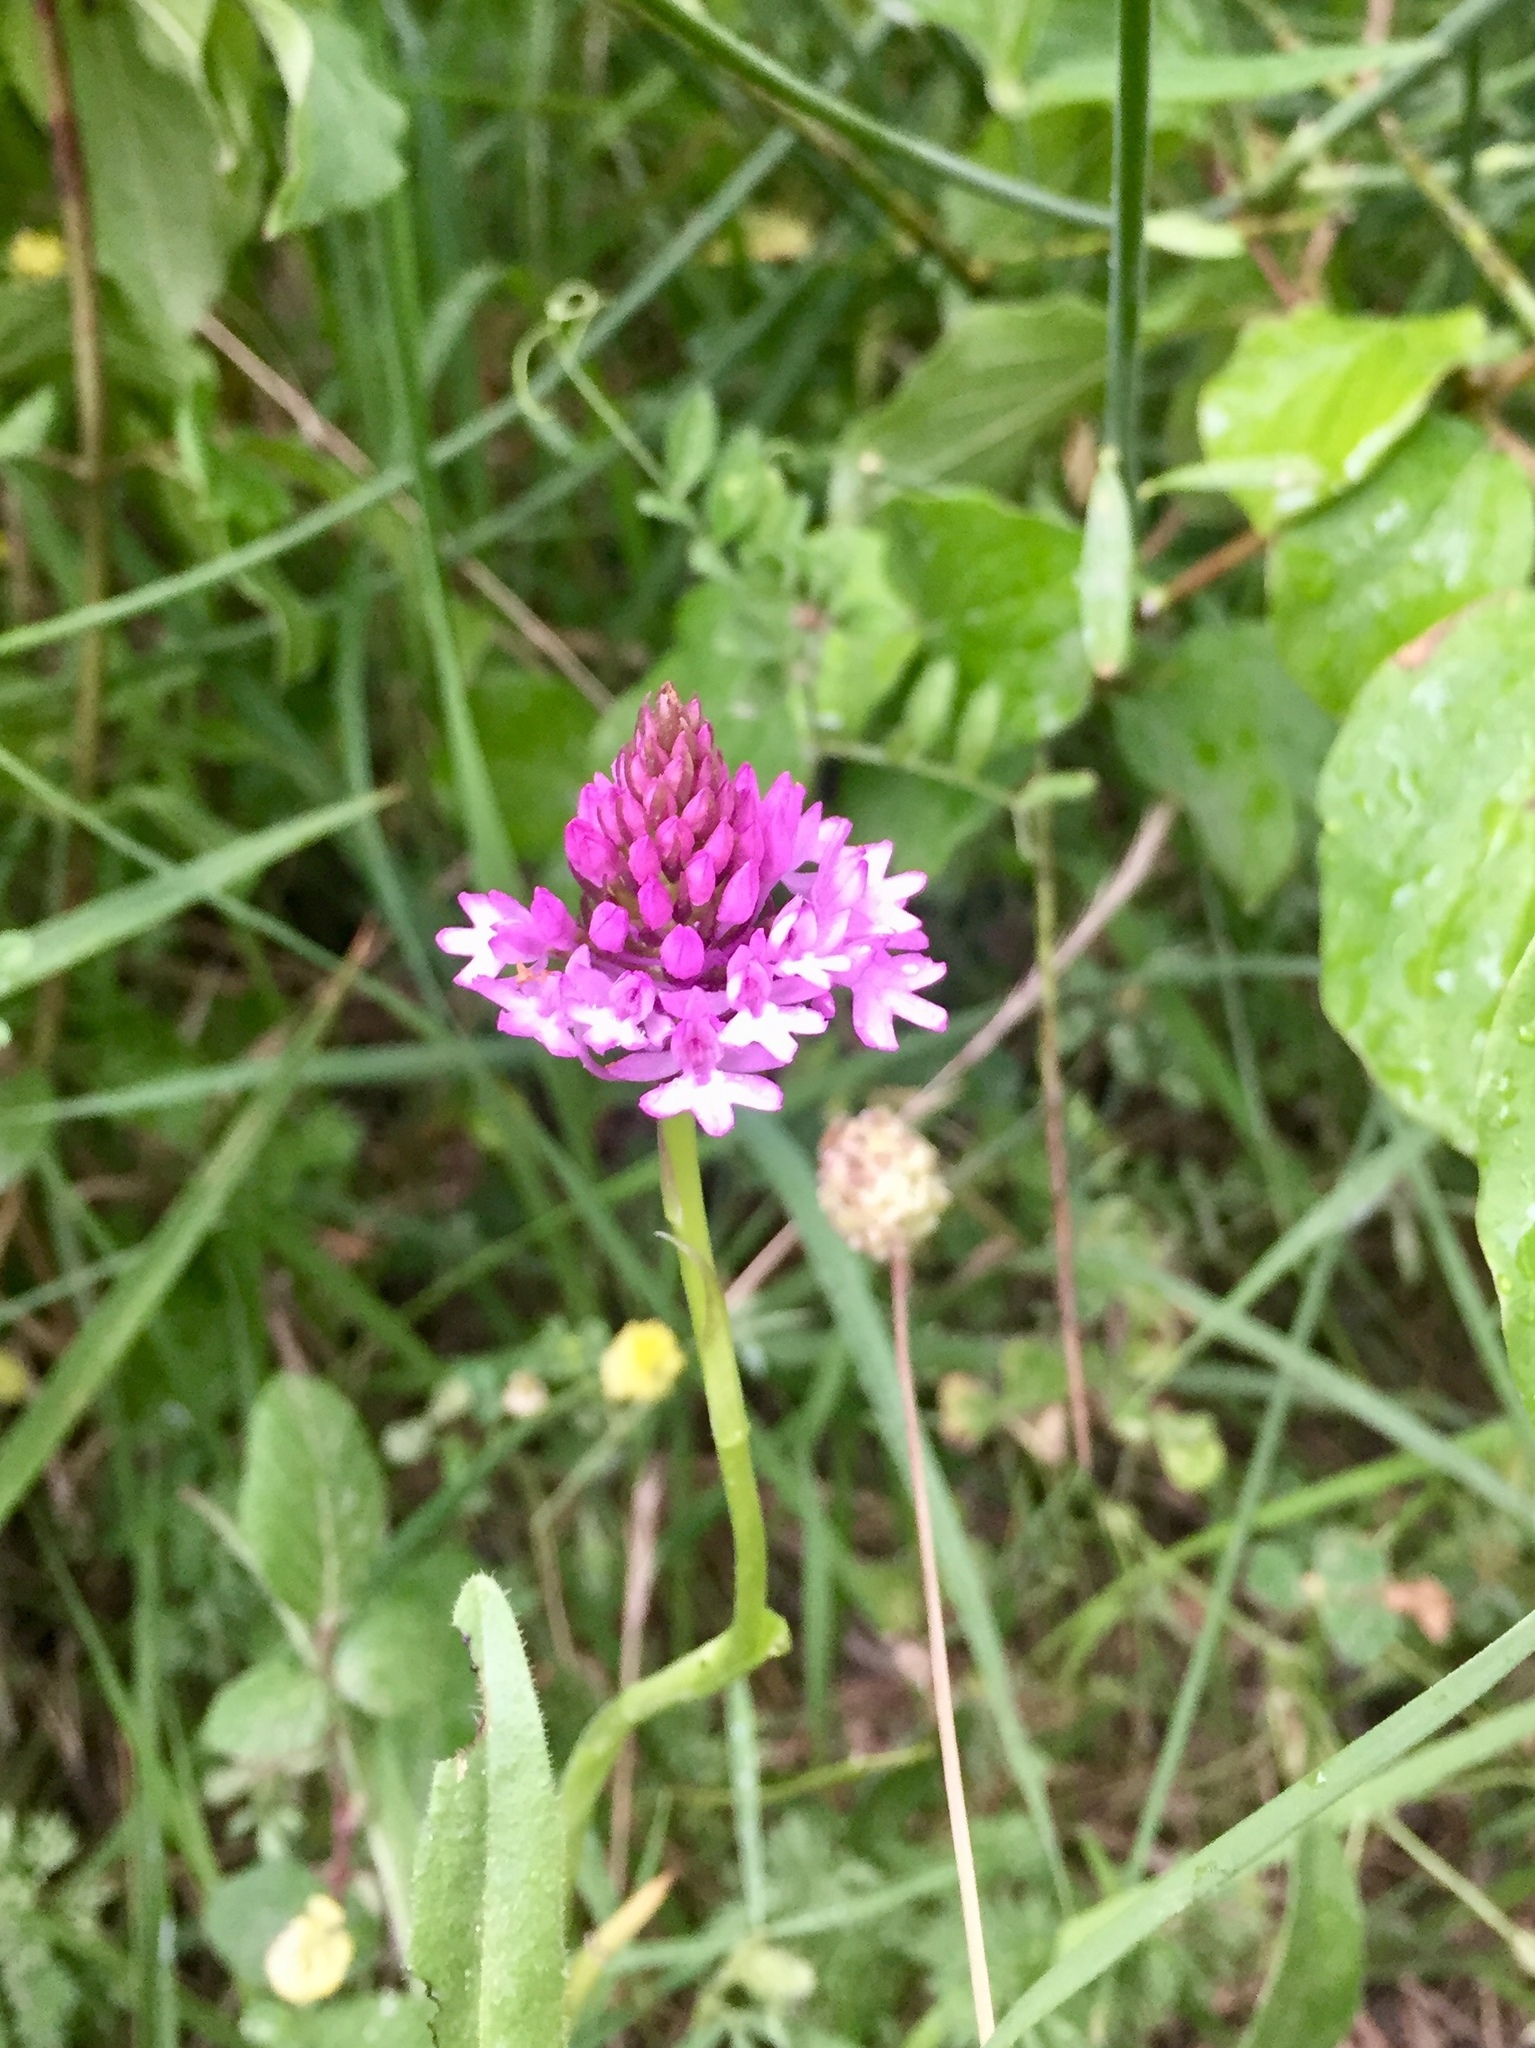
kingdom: Plantae
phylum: Tracheophyta
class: Liliopsida
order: Asparagales
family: Orchidaceae
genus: Anacamptis
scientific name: Anacamptis pyramidalis
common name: Pyramidal orchid
